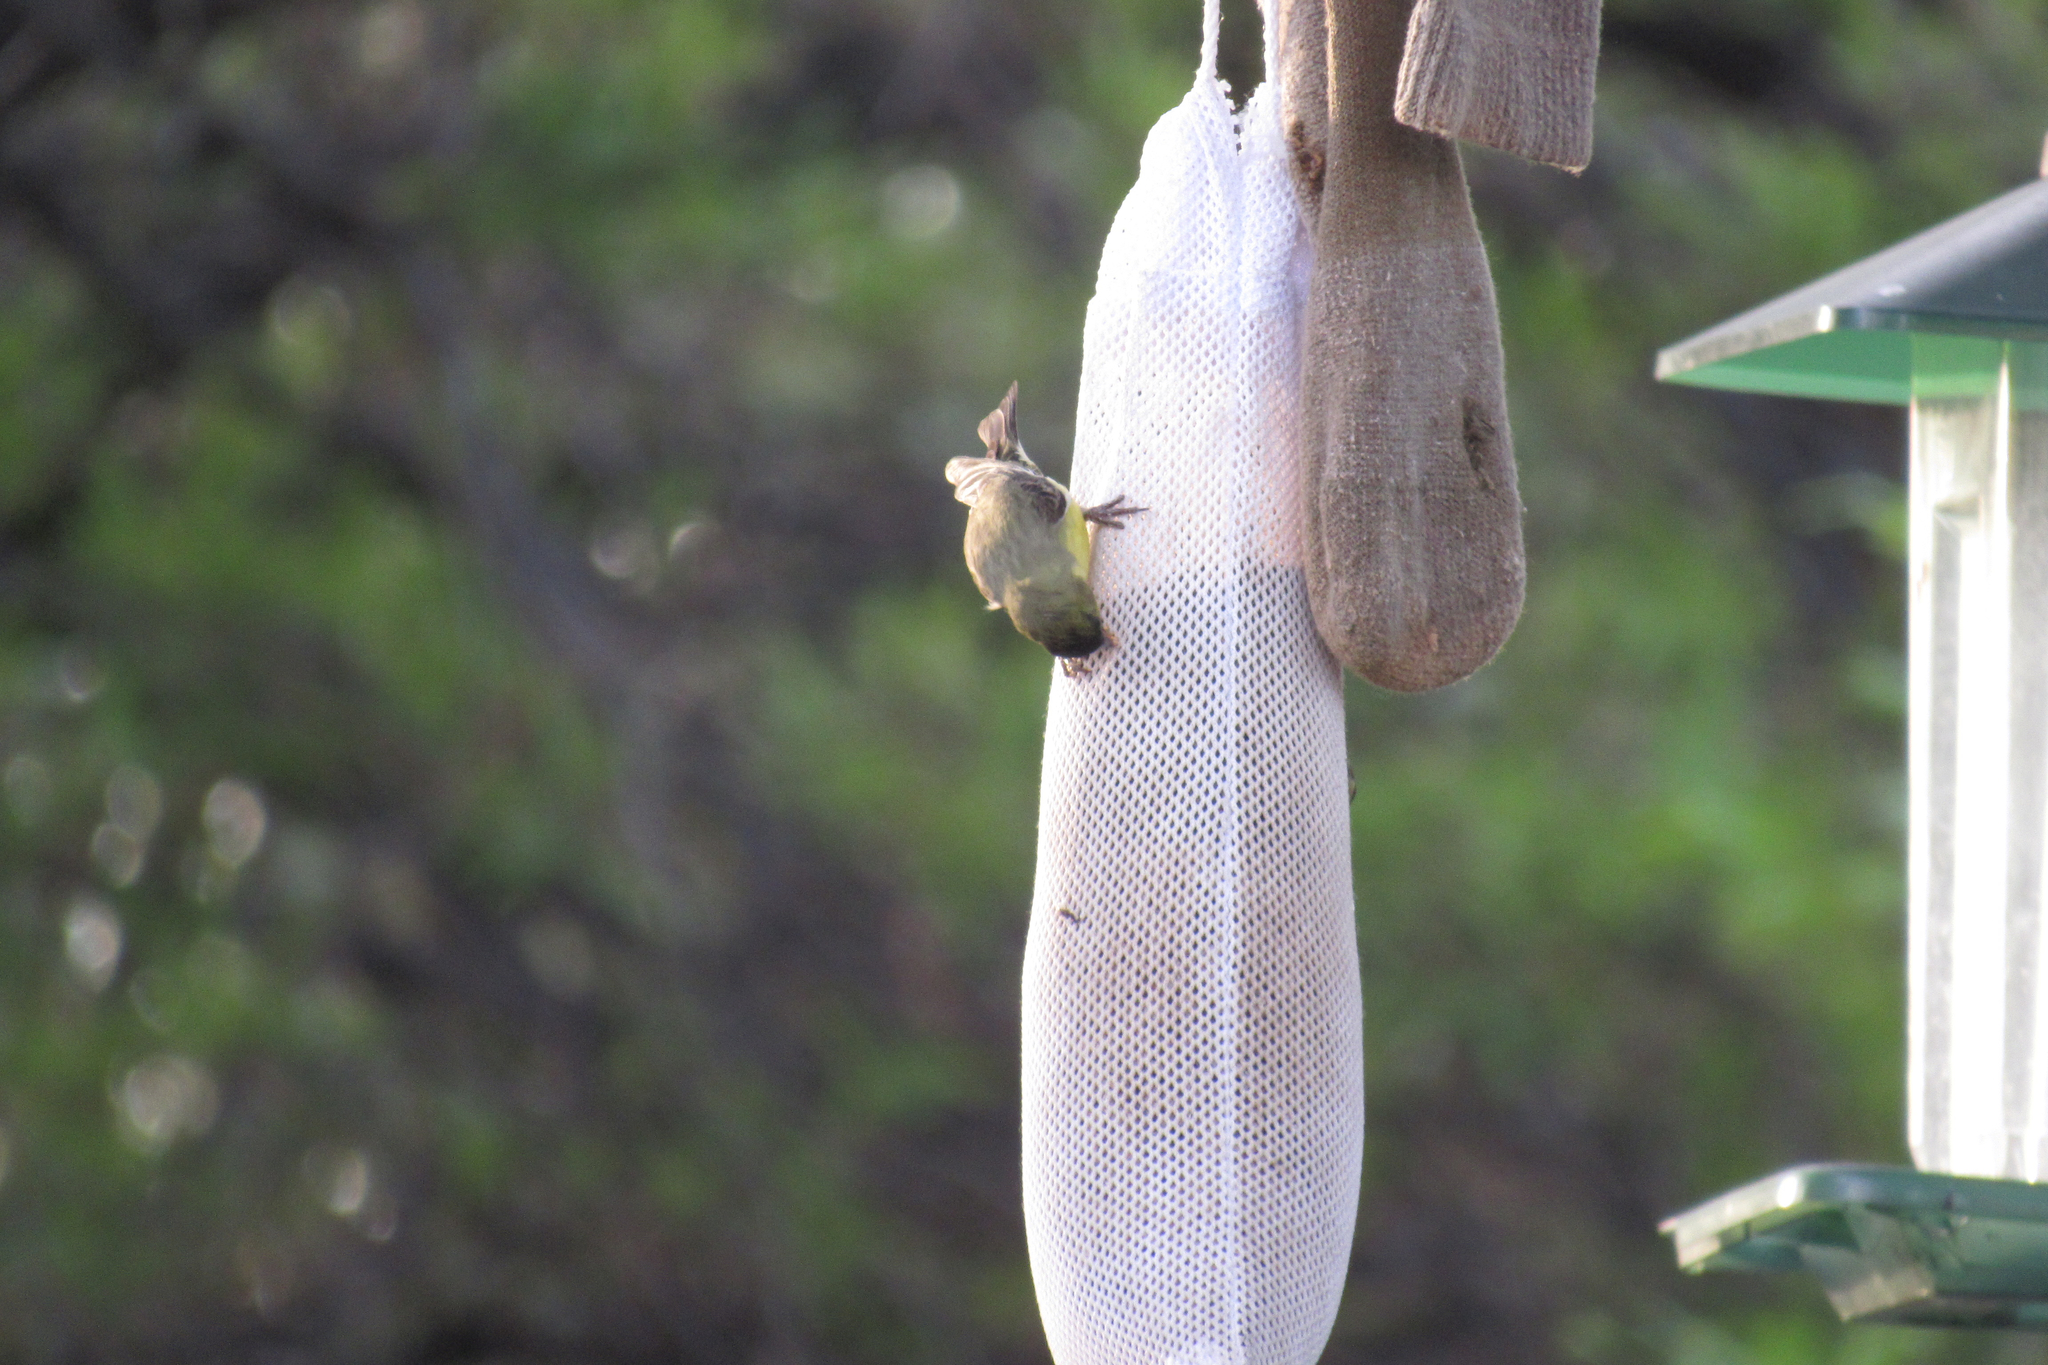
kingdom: Animalia
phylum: Chordata
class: Aves
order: Passeriformes
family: Fringillidae
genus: Spinus
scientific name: Spinus psaltria
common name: Lesser goldfinch
